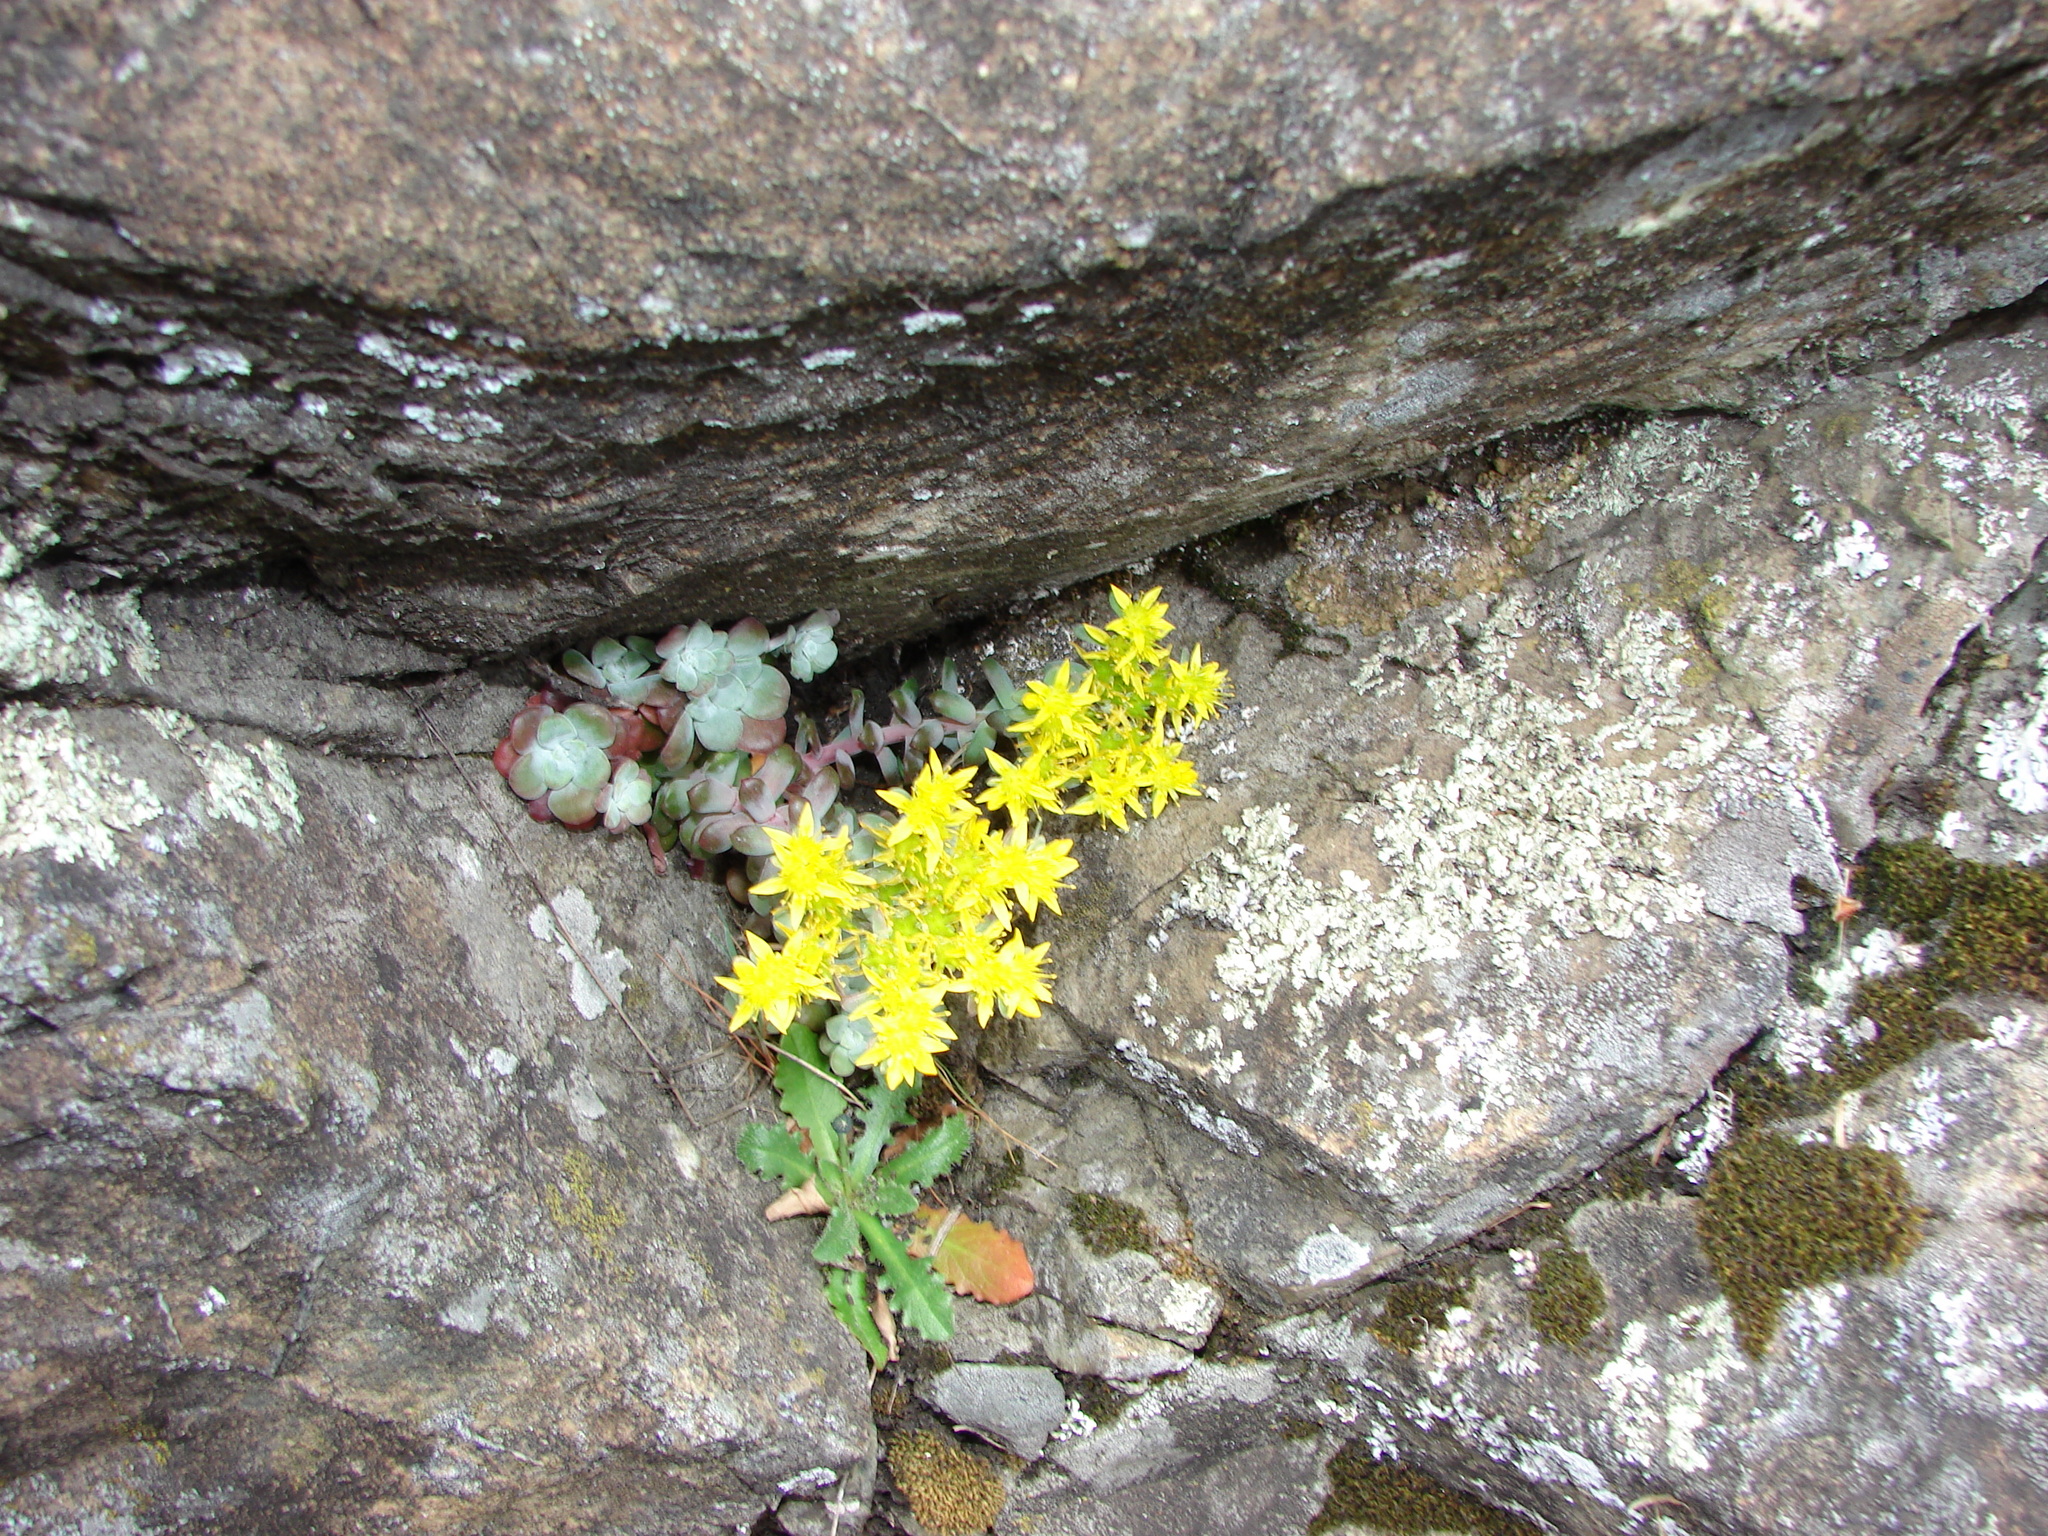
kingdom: Plantae
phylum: Tracheophyta
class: Magnoliopsida
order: Saxifragales
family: Crassulaceae
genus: Sedum
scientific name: Sedum spathulifolium
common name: Colorado stonecrop
